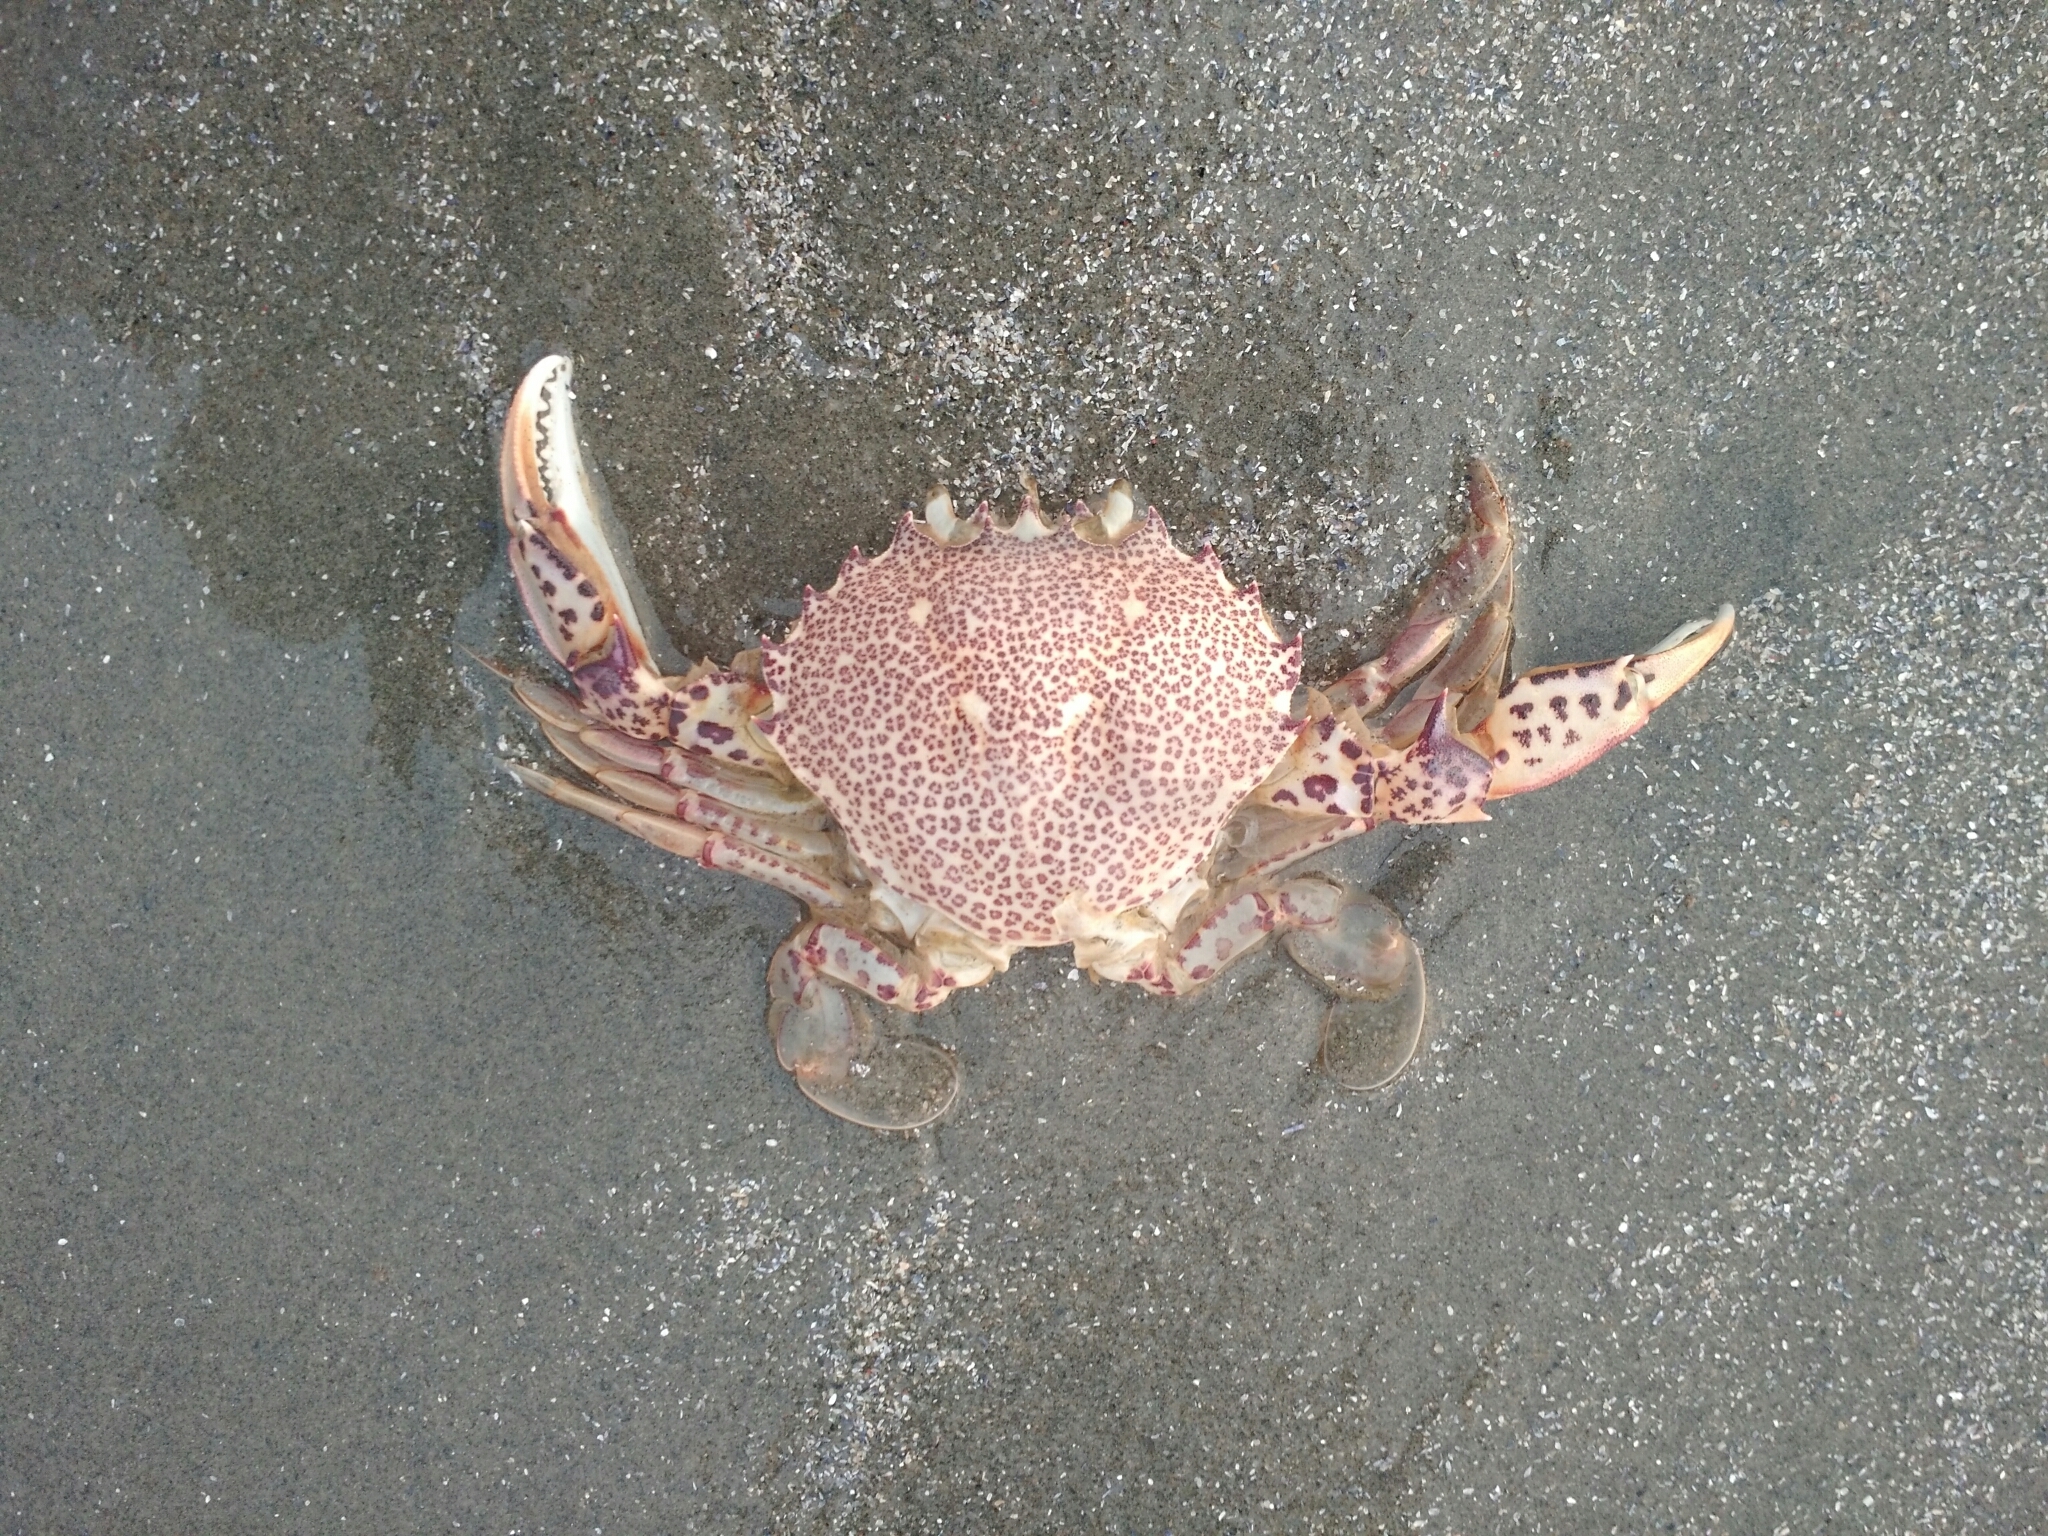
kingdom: Animalia
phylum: Arthropoda
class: Malacostraca
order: Decapoda
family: Ovalipidae
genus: Ovalipes
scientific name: Ovalipes ocellatus
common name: Lady crab
